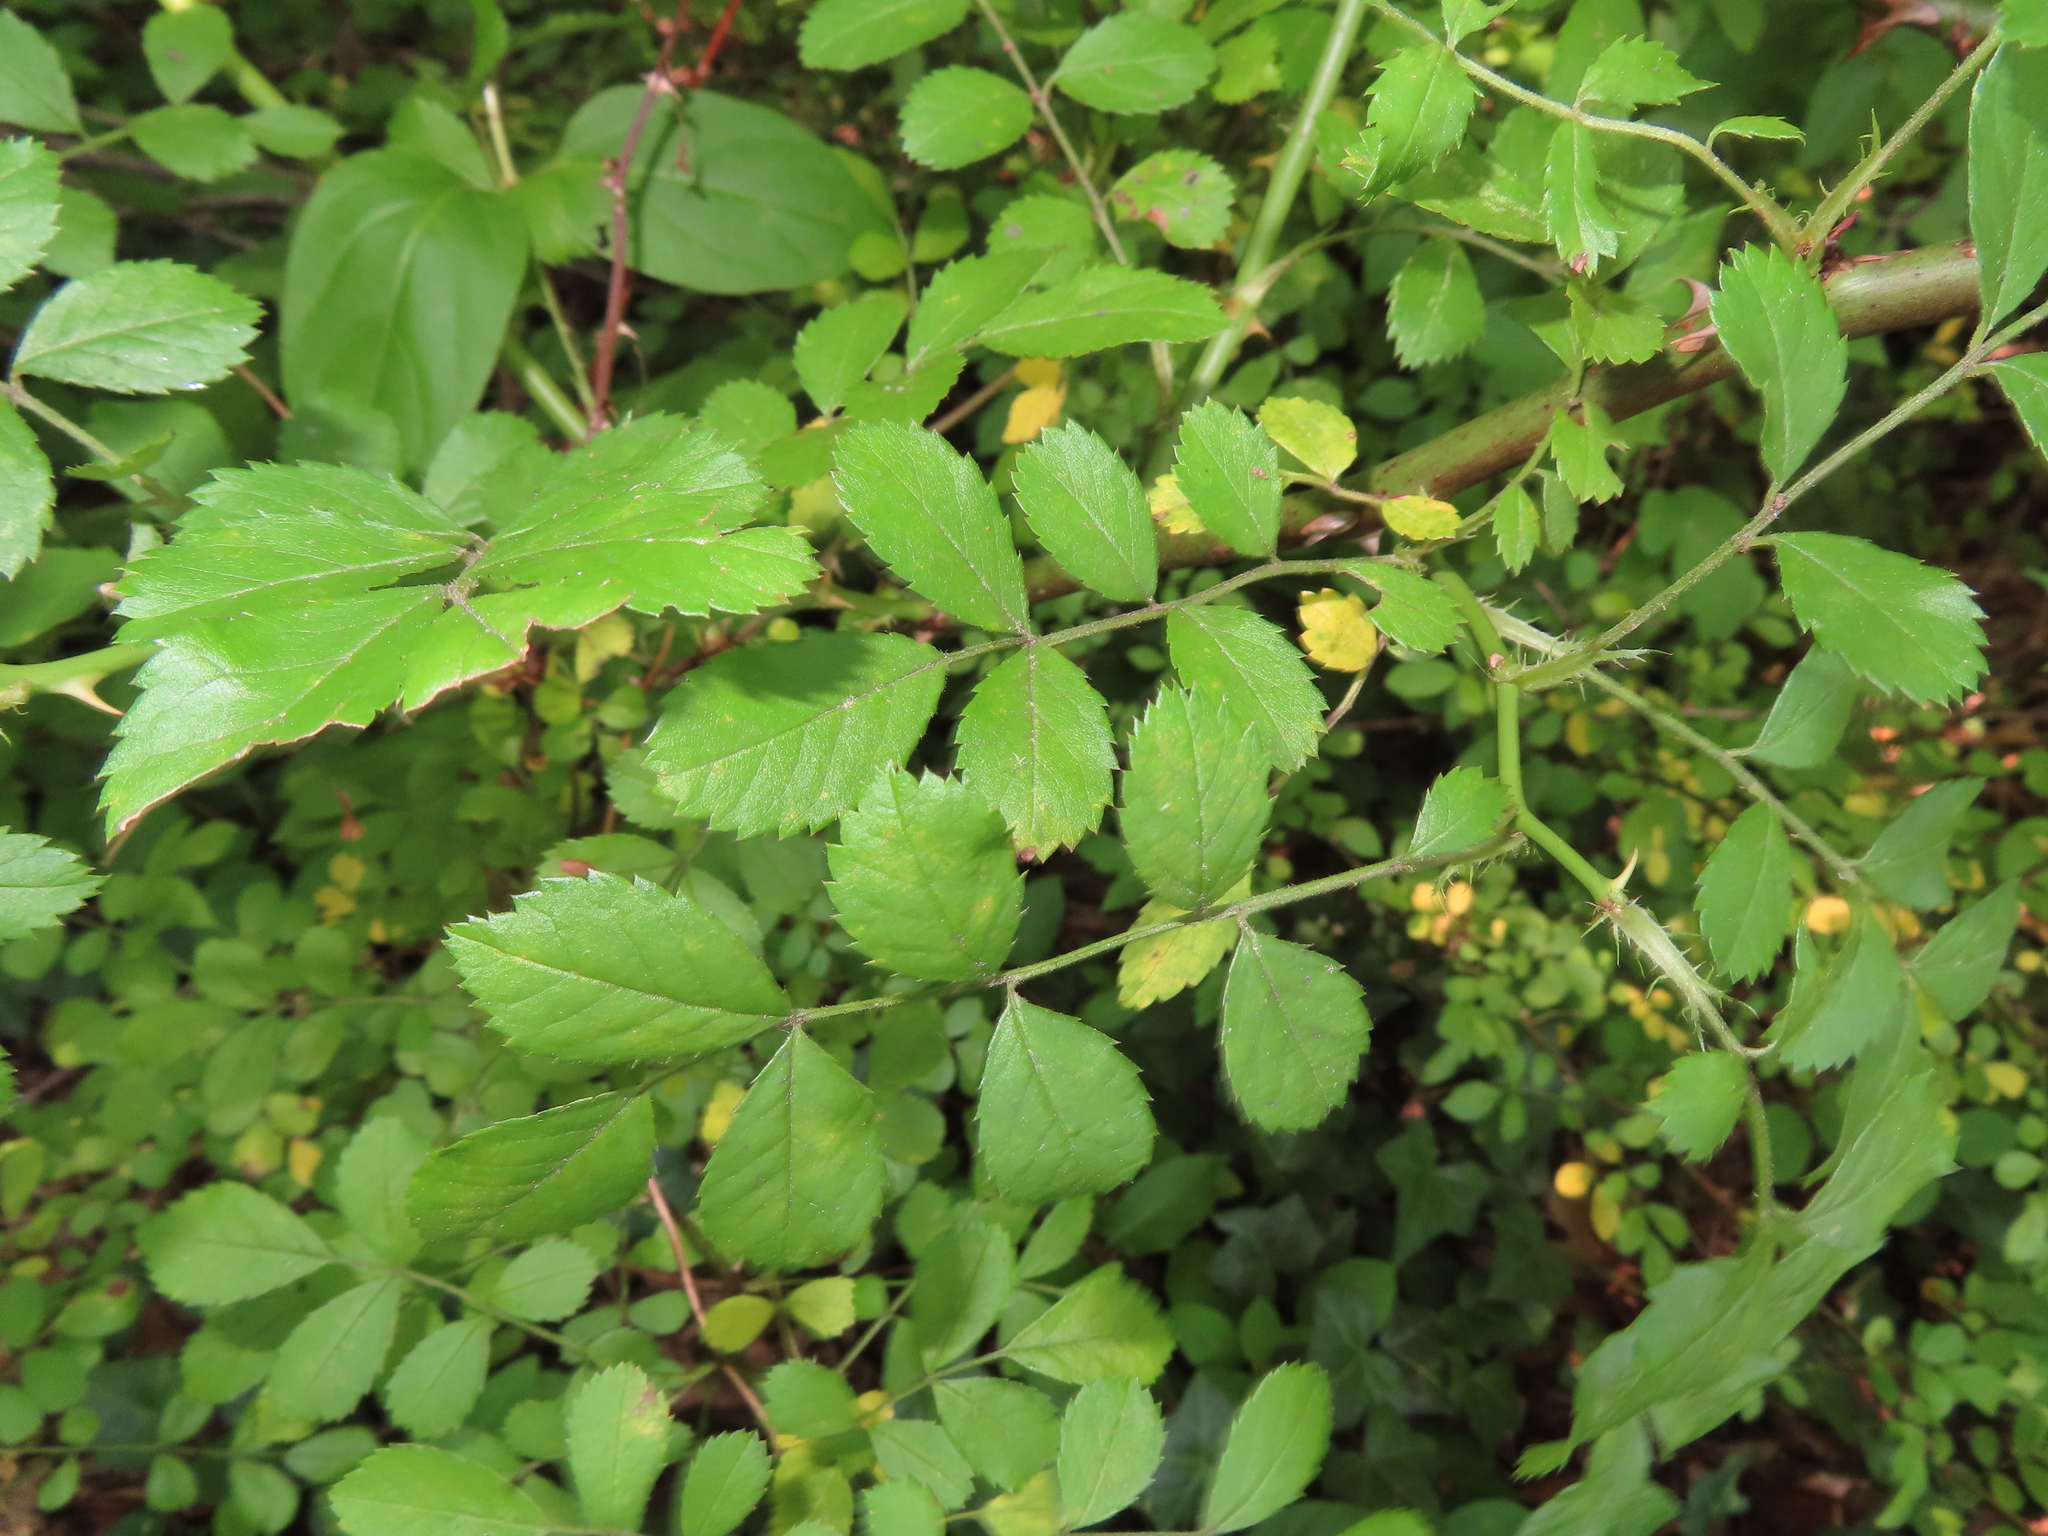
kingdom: Plantae
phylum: Tracheophyta
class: Magnoliopsida
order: Rosales
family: Rosaceae
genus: Rosa
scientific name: Rosa multiflora
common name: Multiflora rose
